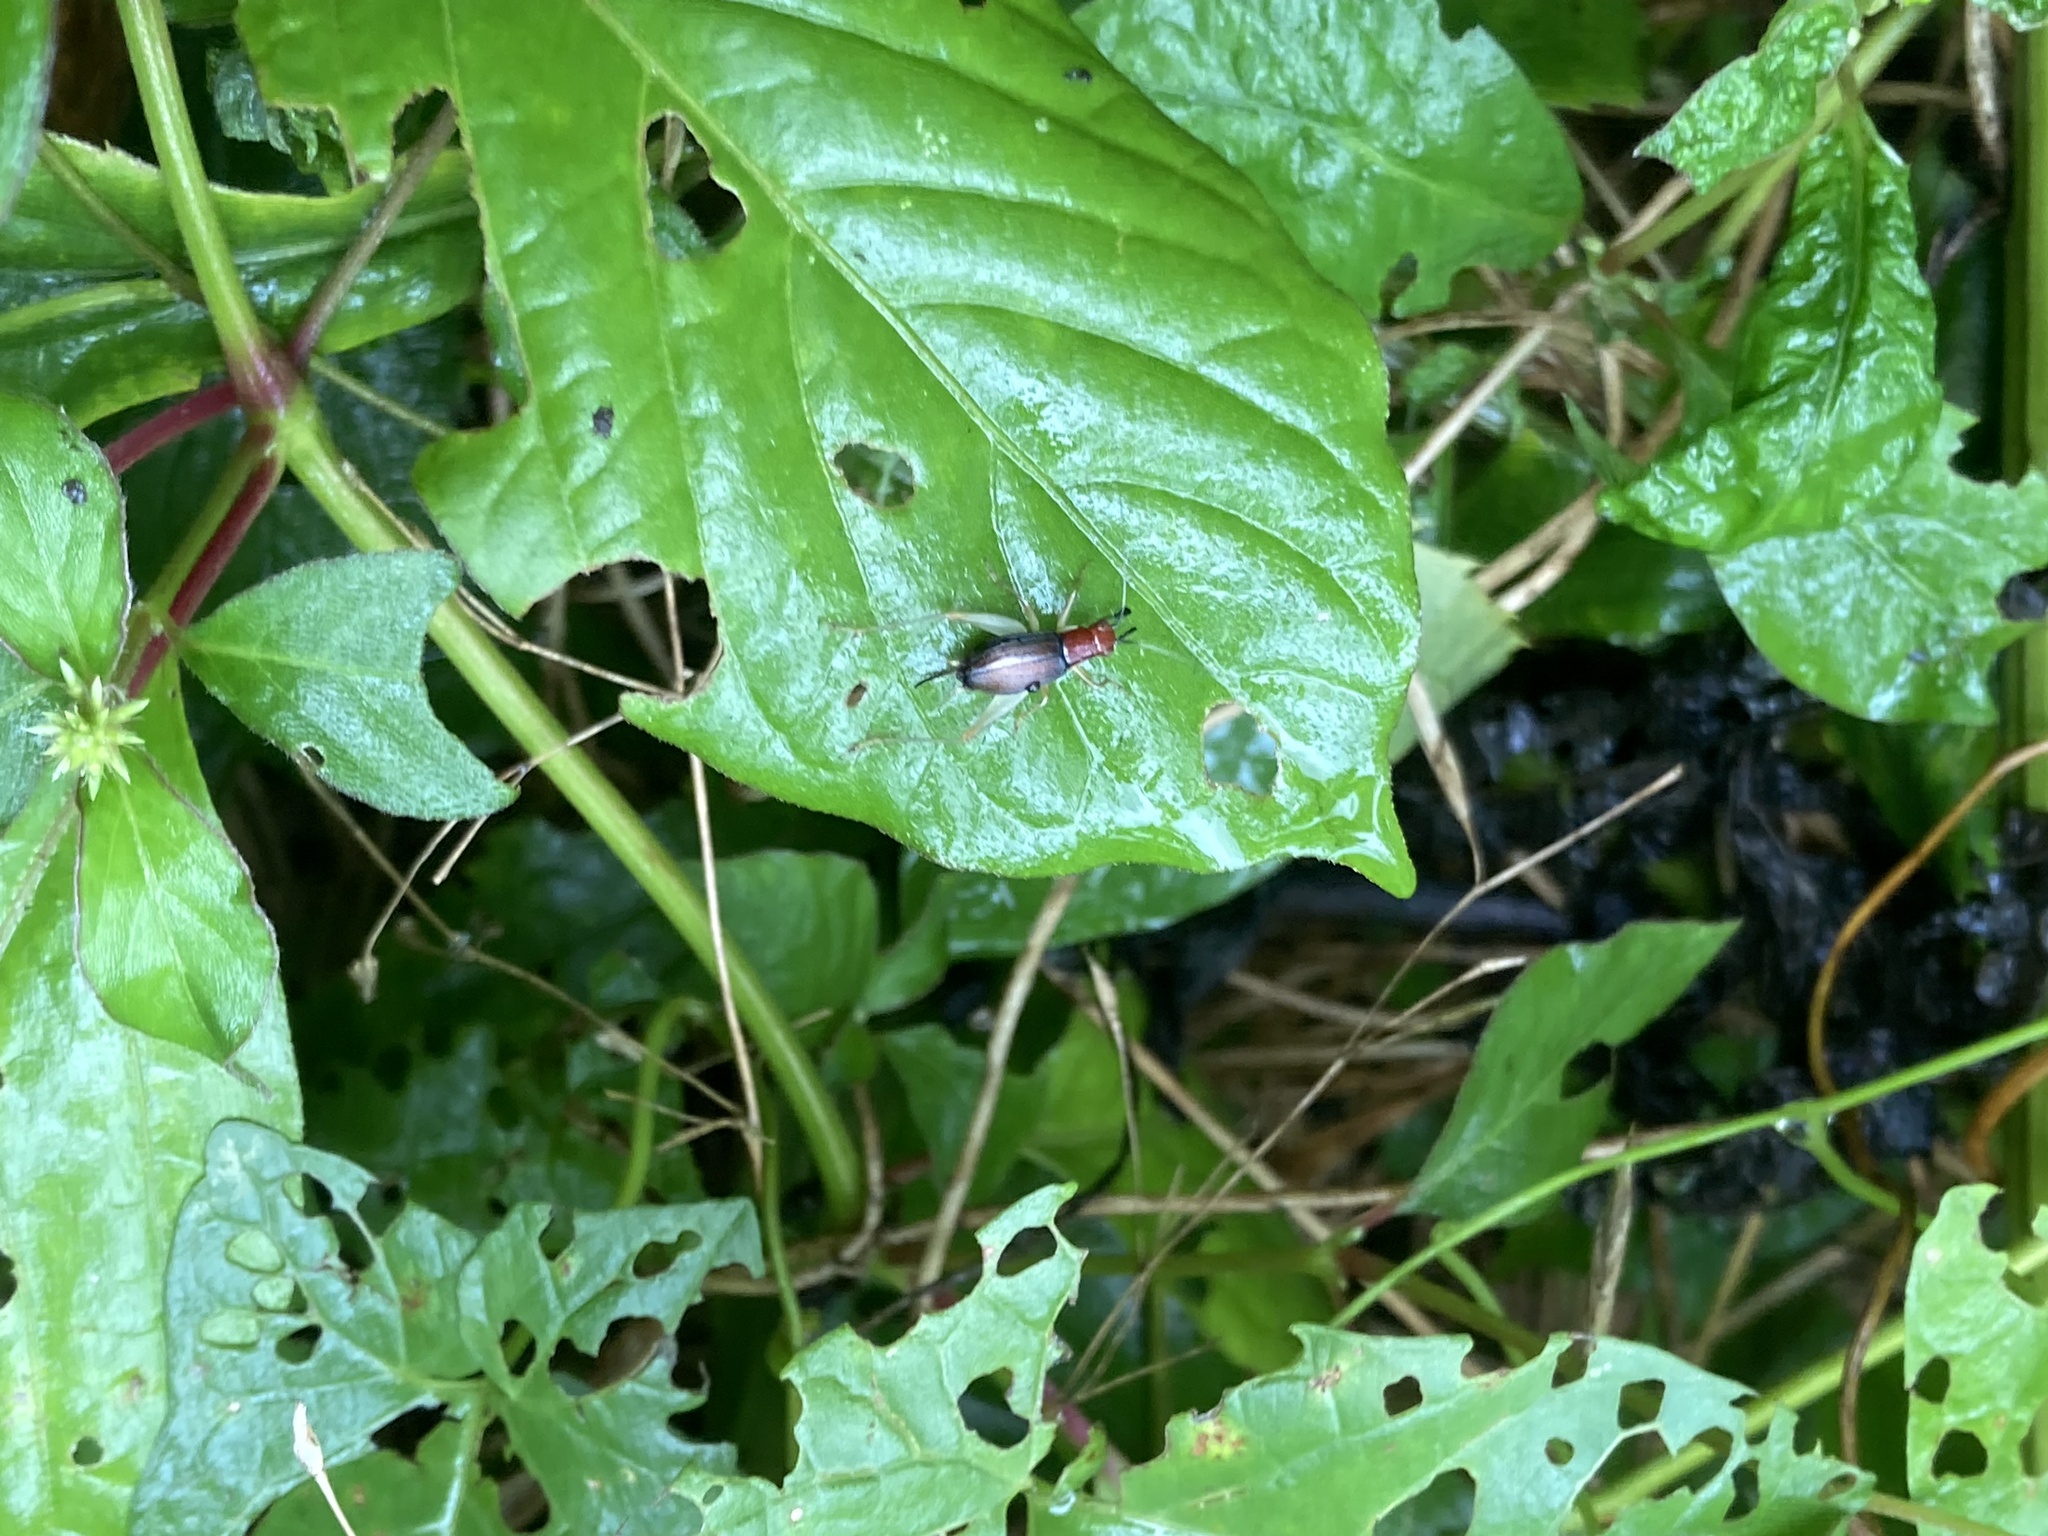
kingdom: Animalia
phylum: Arthropoda
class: Insecta
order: Orthoptera
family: Trigonidiidae
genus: Phyllopalpus
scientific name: Phyllopalpus pulchellus
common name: Handsome trig
